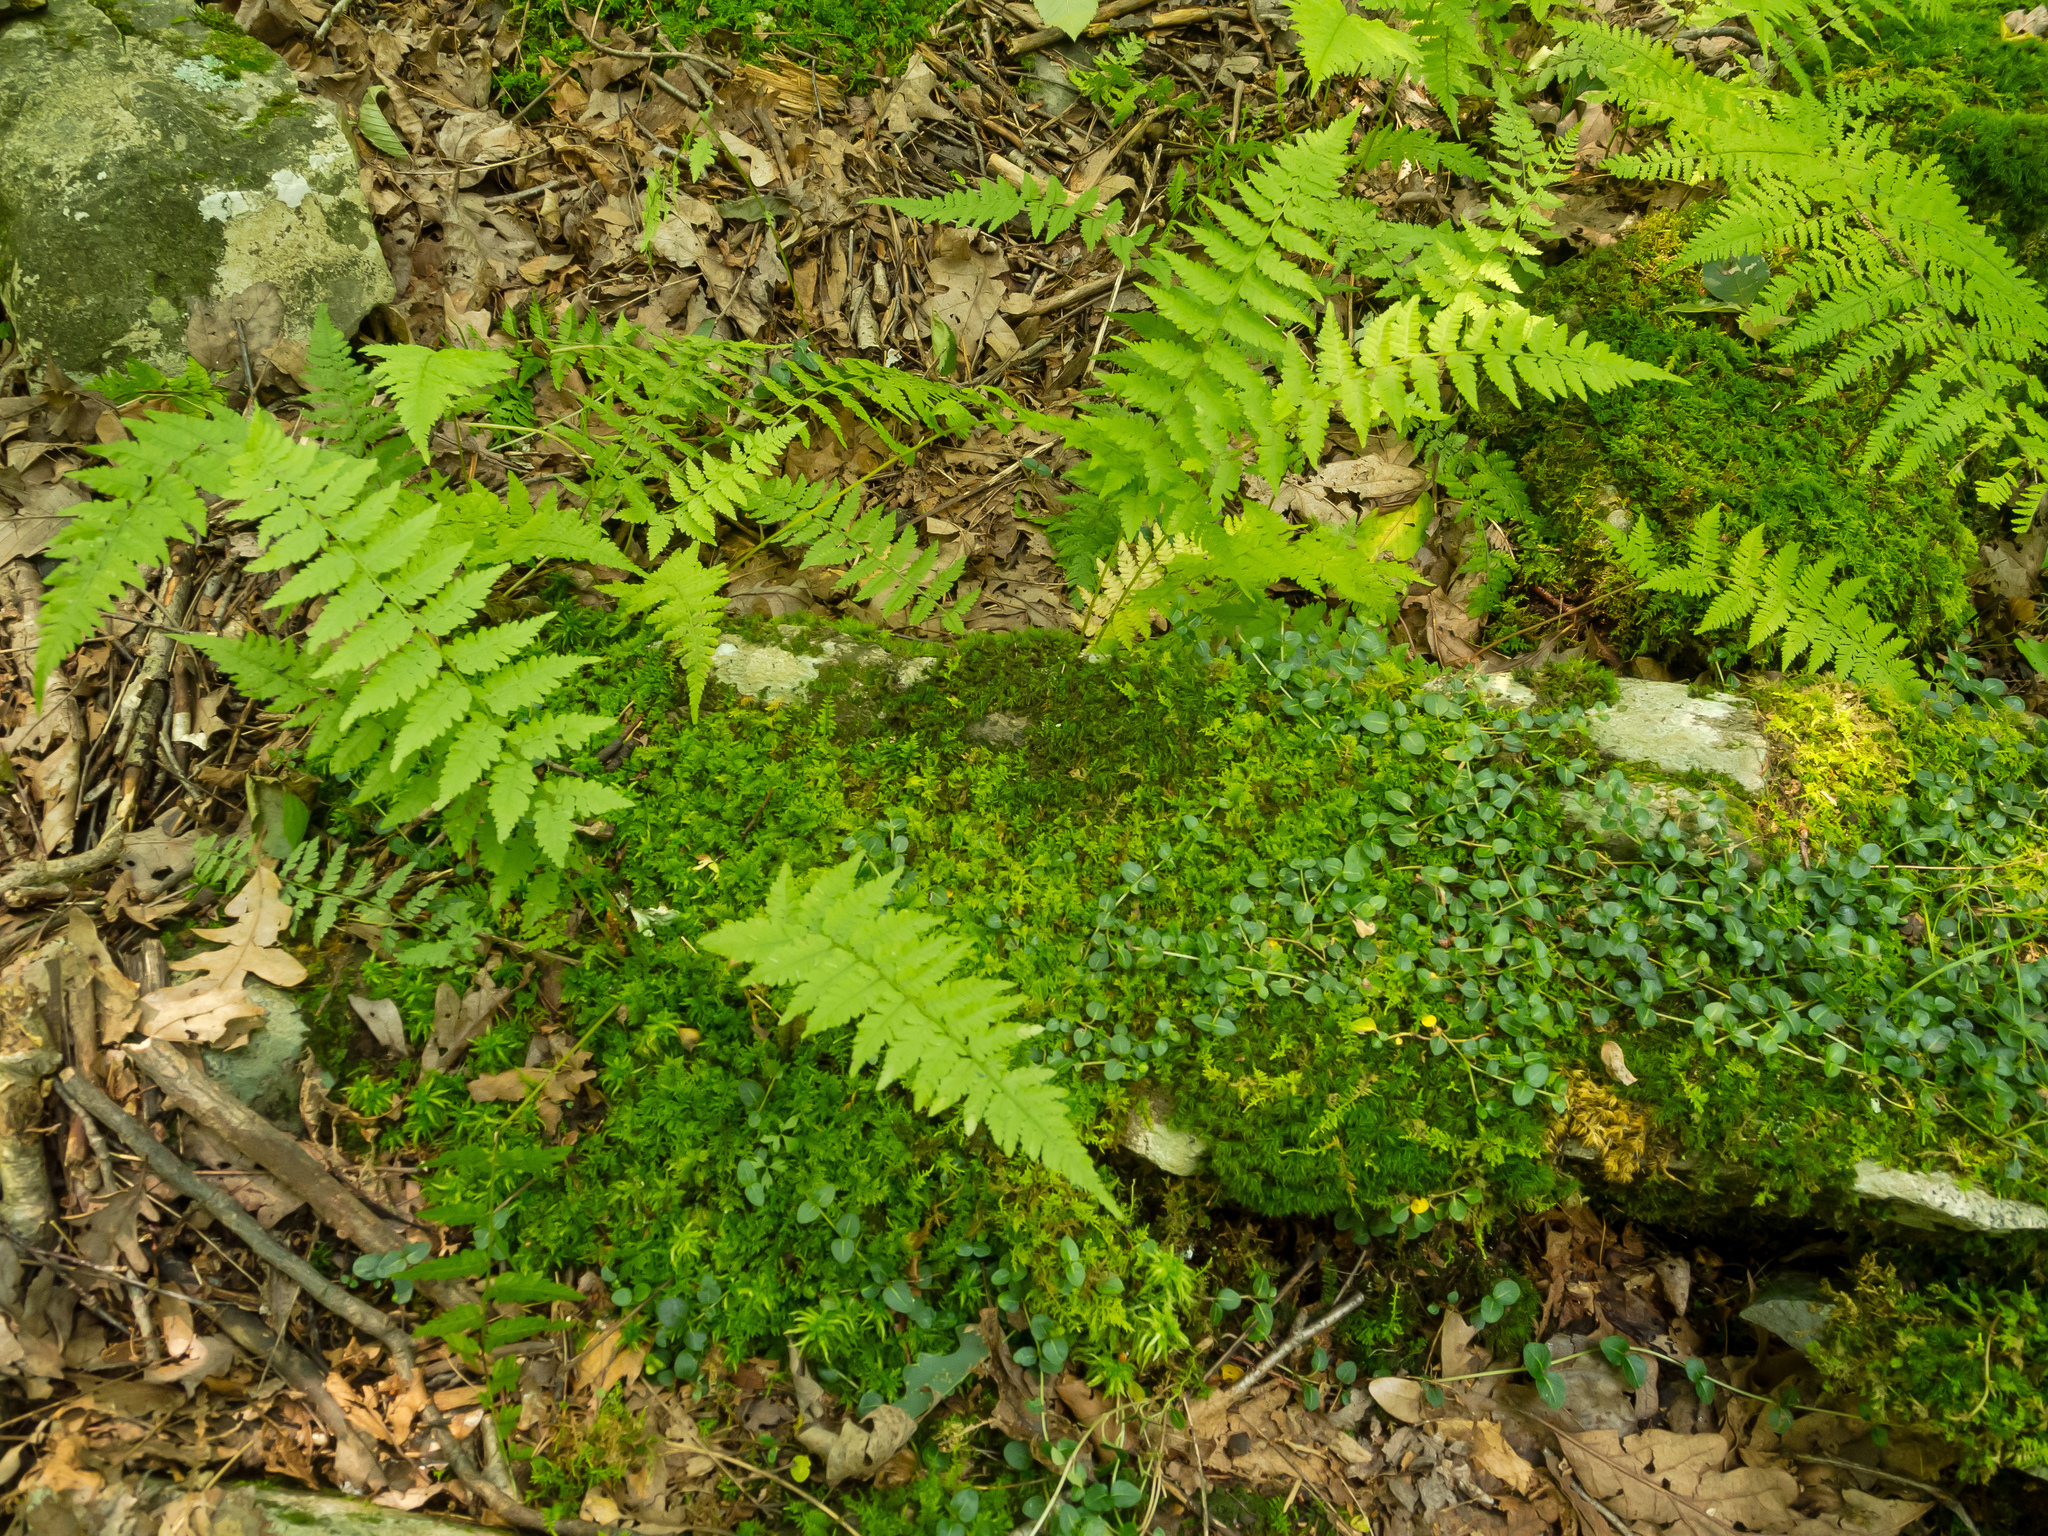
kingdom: Plantae
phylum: Tracheophyta
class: Magnoliopsida
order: Gentianales
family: Rubiaceae
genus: Mitchella
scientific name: Mitchella repens
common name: Partridge-berry
